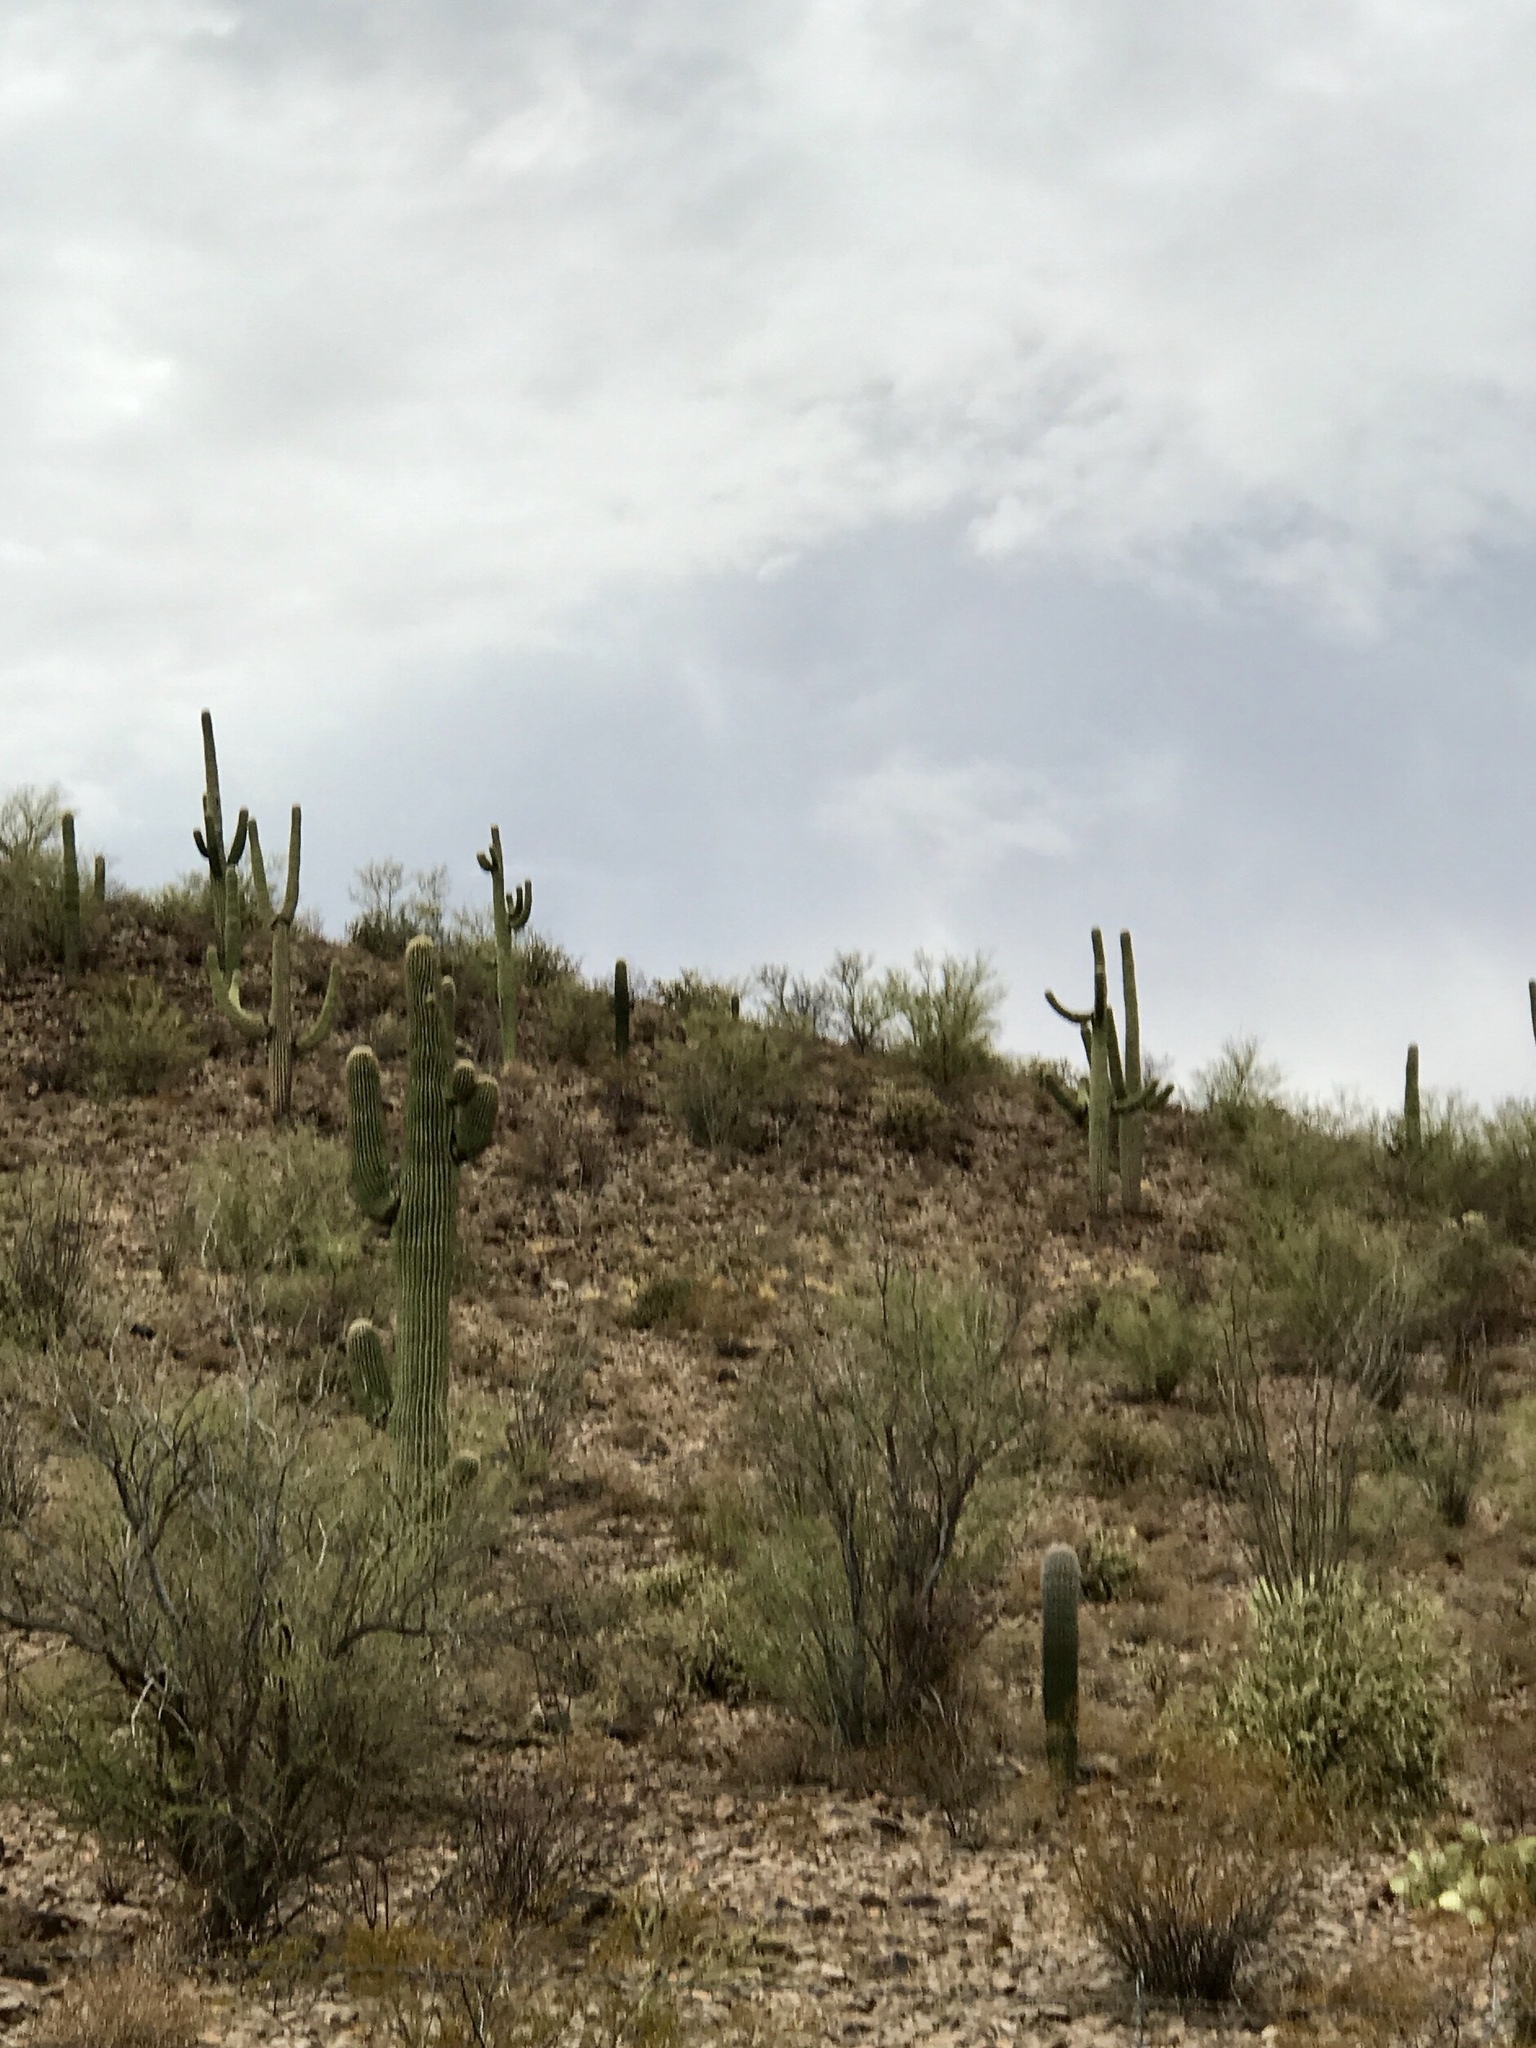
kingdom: Plantae
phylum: Tracheophyta
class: Magnoliopsida
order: Caryophyllales
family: Cactaceae
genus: Carnegiea
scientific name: Carnegiea gigantea
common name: Saguaro
